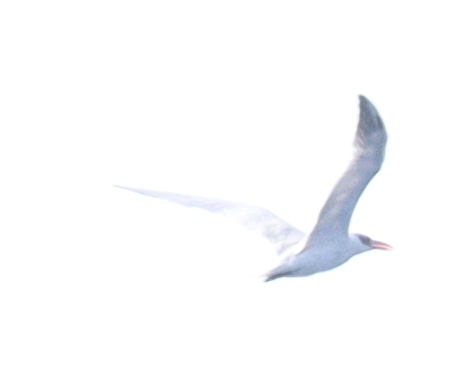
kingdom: Animalia
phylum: Chordata
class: Aves
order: Charadriiformes
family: Laridae
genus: Hydroprogne
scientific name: Hydroprogne caspia
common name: Caspian tern
